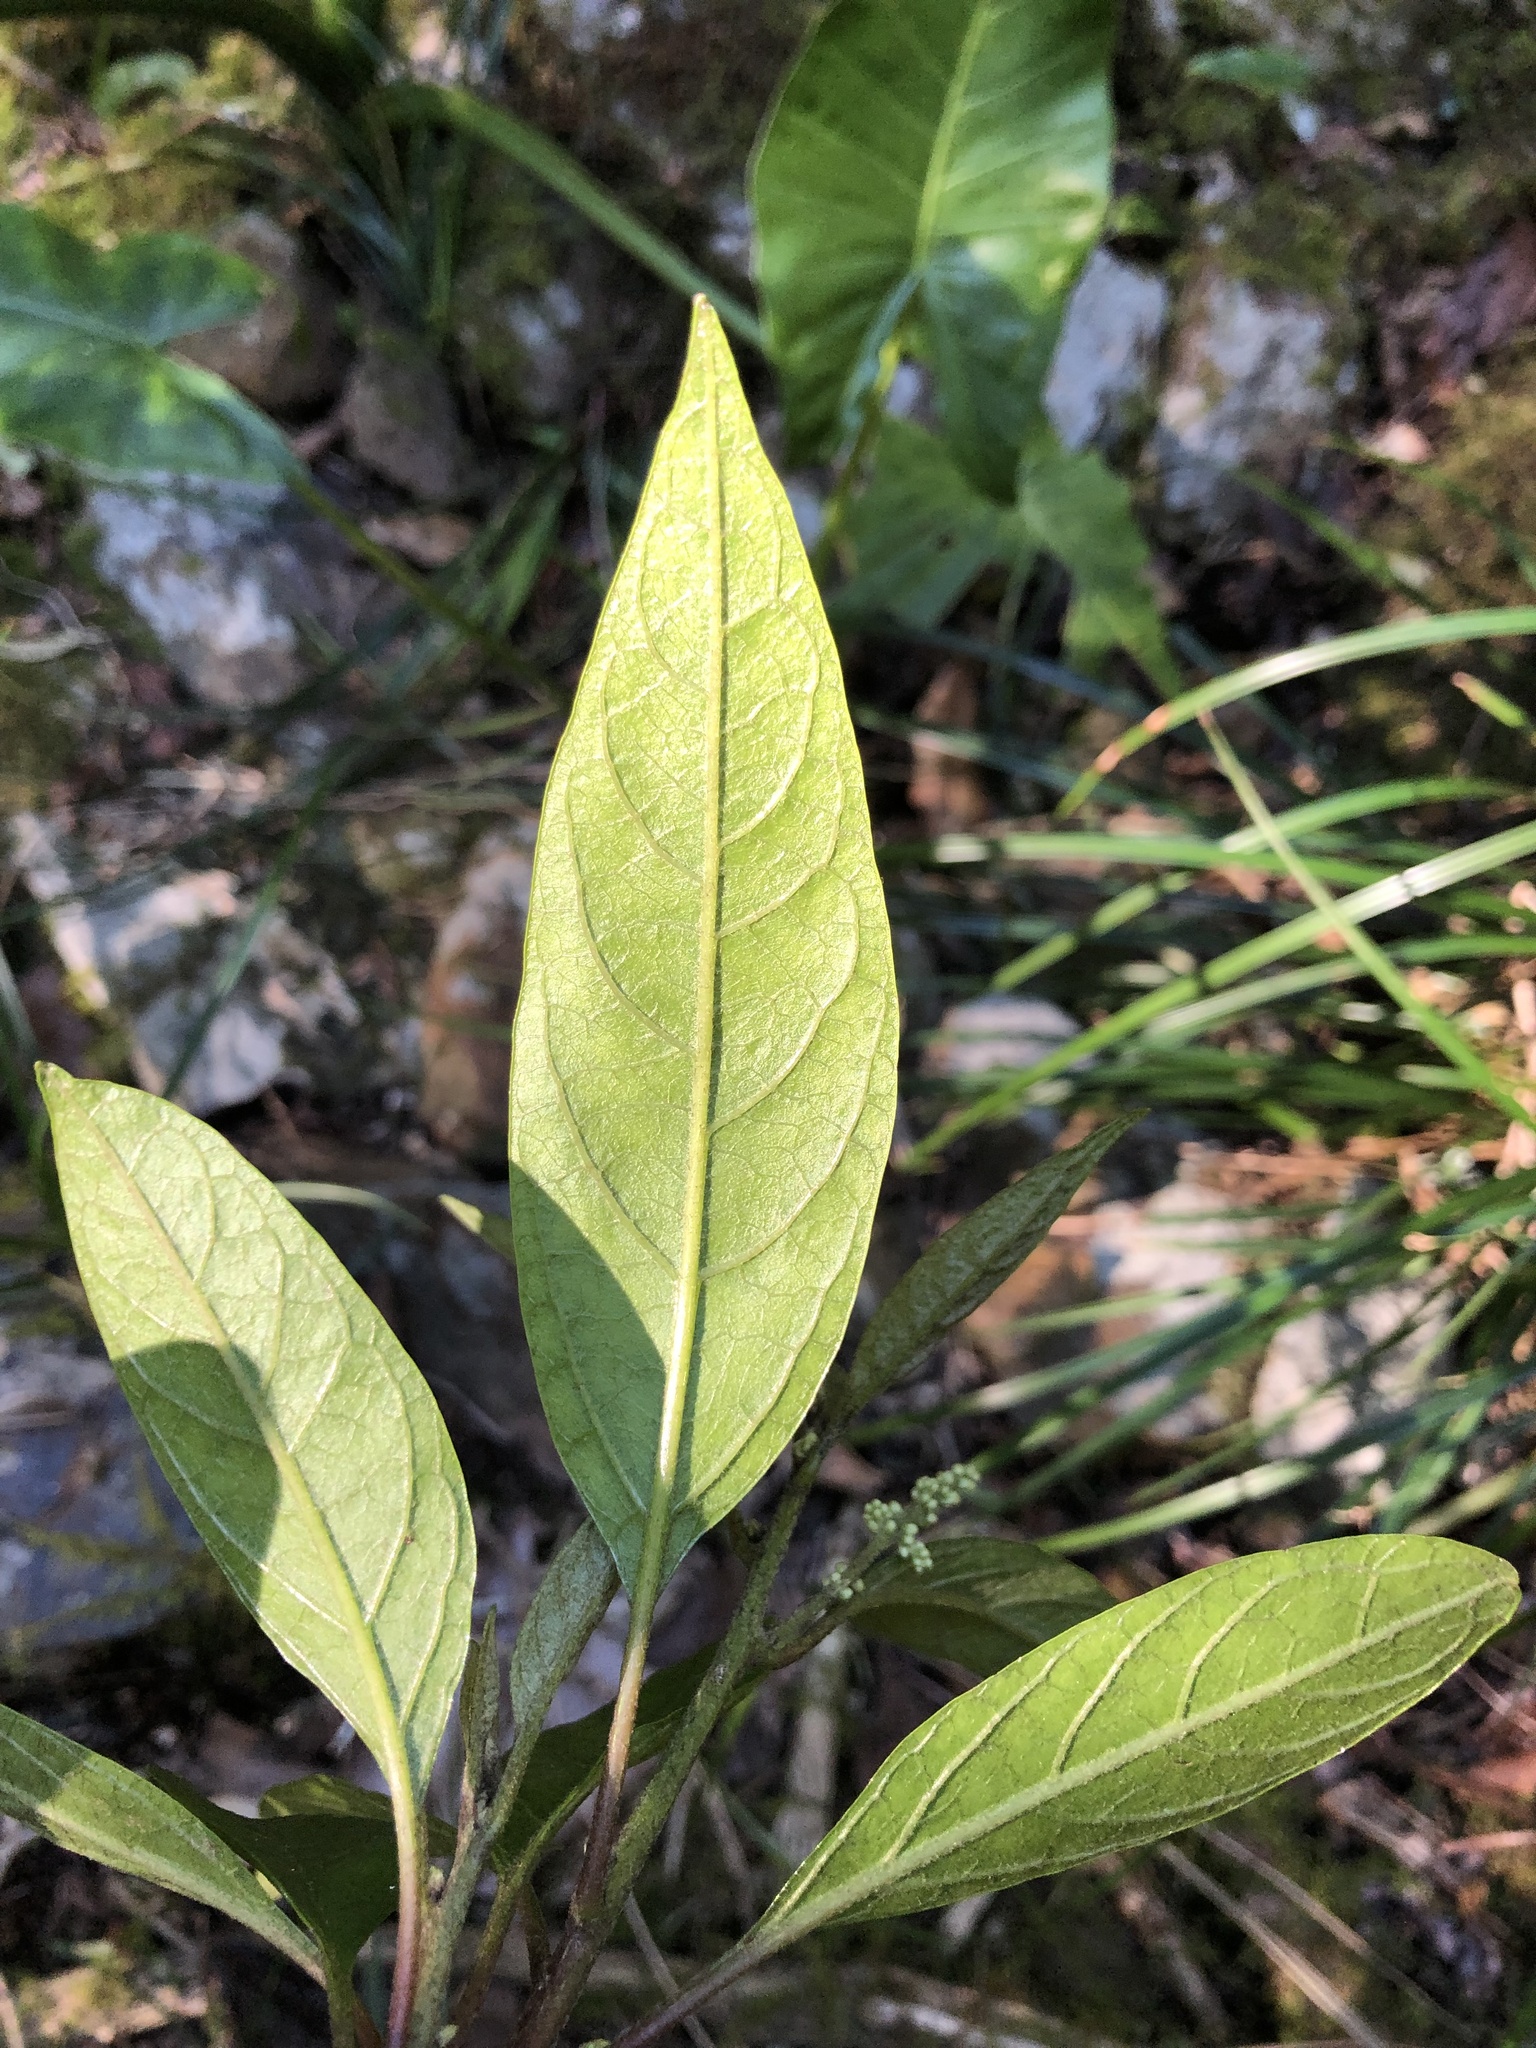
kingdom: Plantae
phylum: Tracheophyta
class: Magnoliopsida
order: Caryophyllales
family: Amaranthaceae
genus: Deeringia
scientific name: Deeringia arborescens
